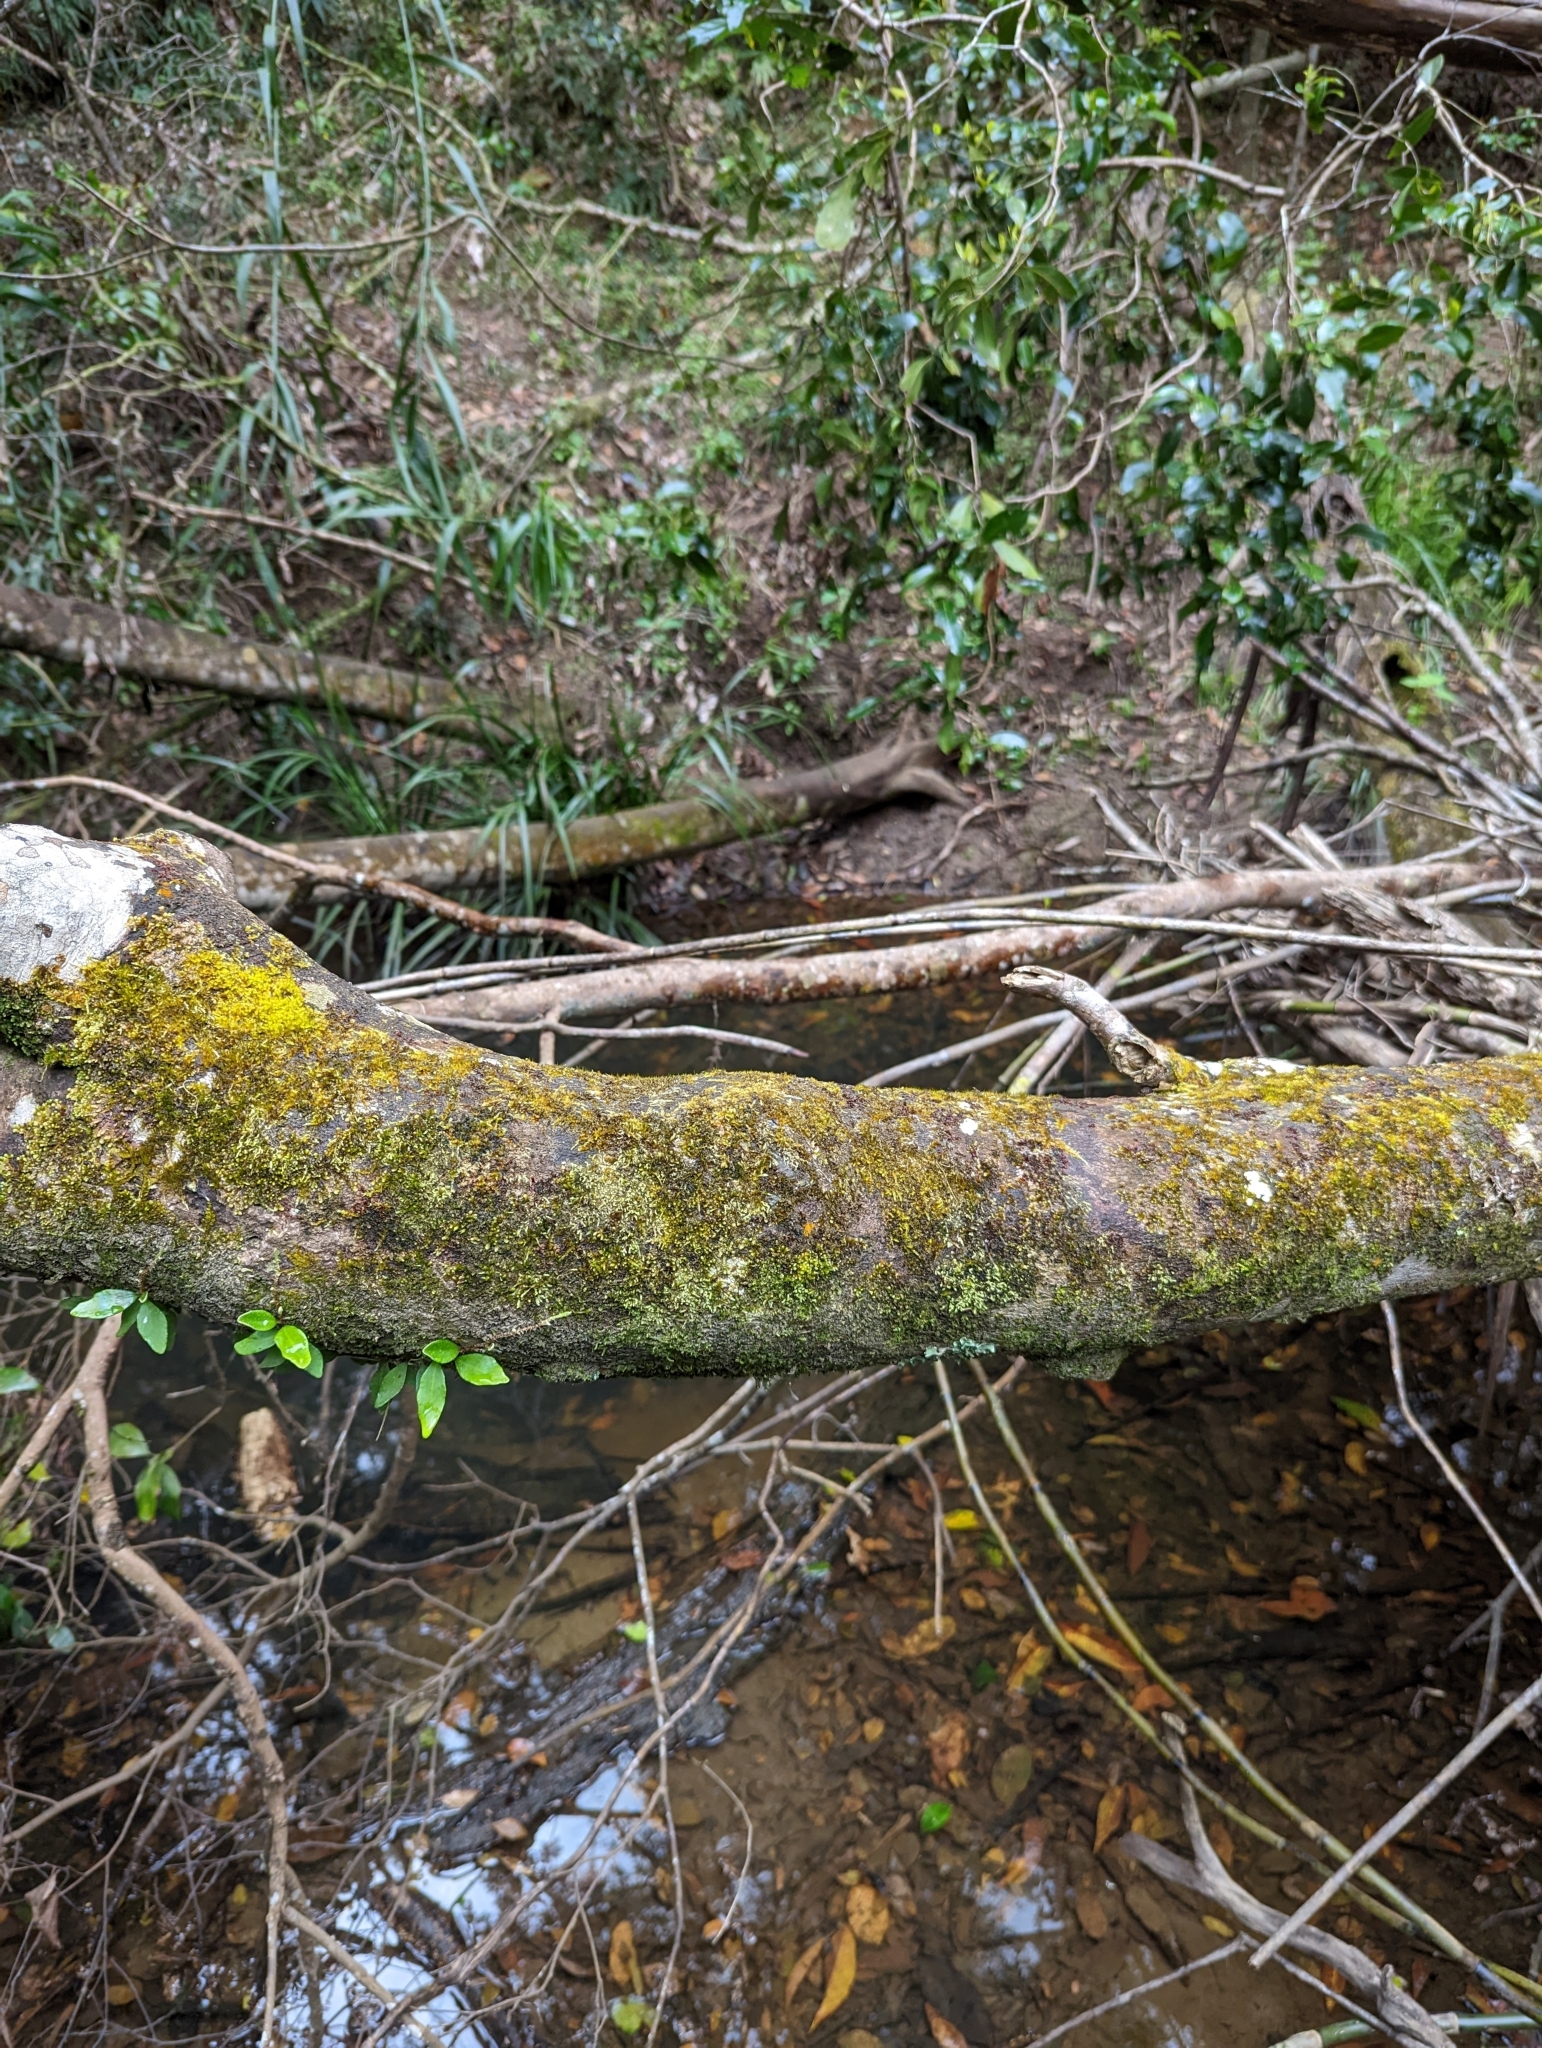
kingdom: Plantae
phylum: Tracheophyta
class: Magnoliopsida
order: Laurales
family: Lauraceae
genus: Endiandra
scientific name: Endiandra discolor
